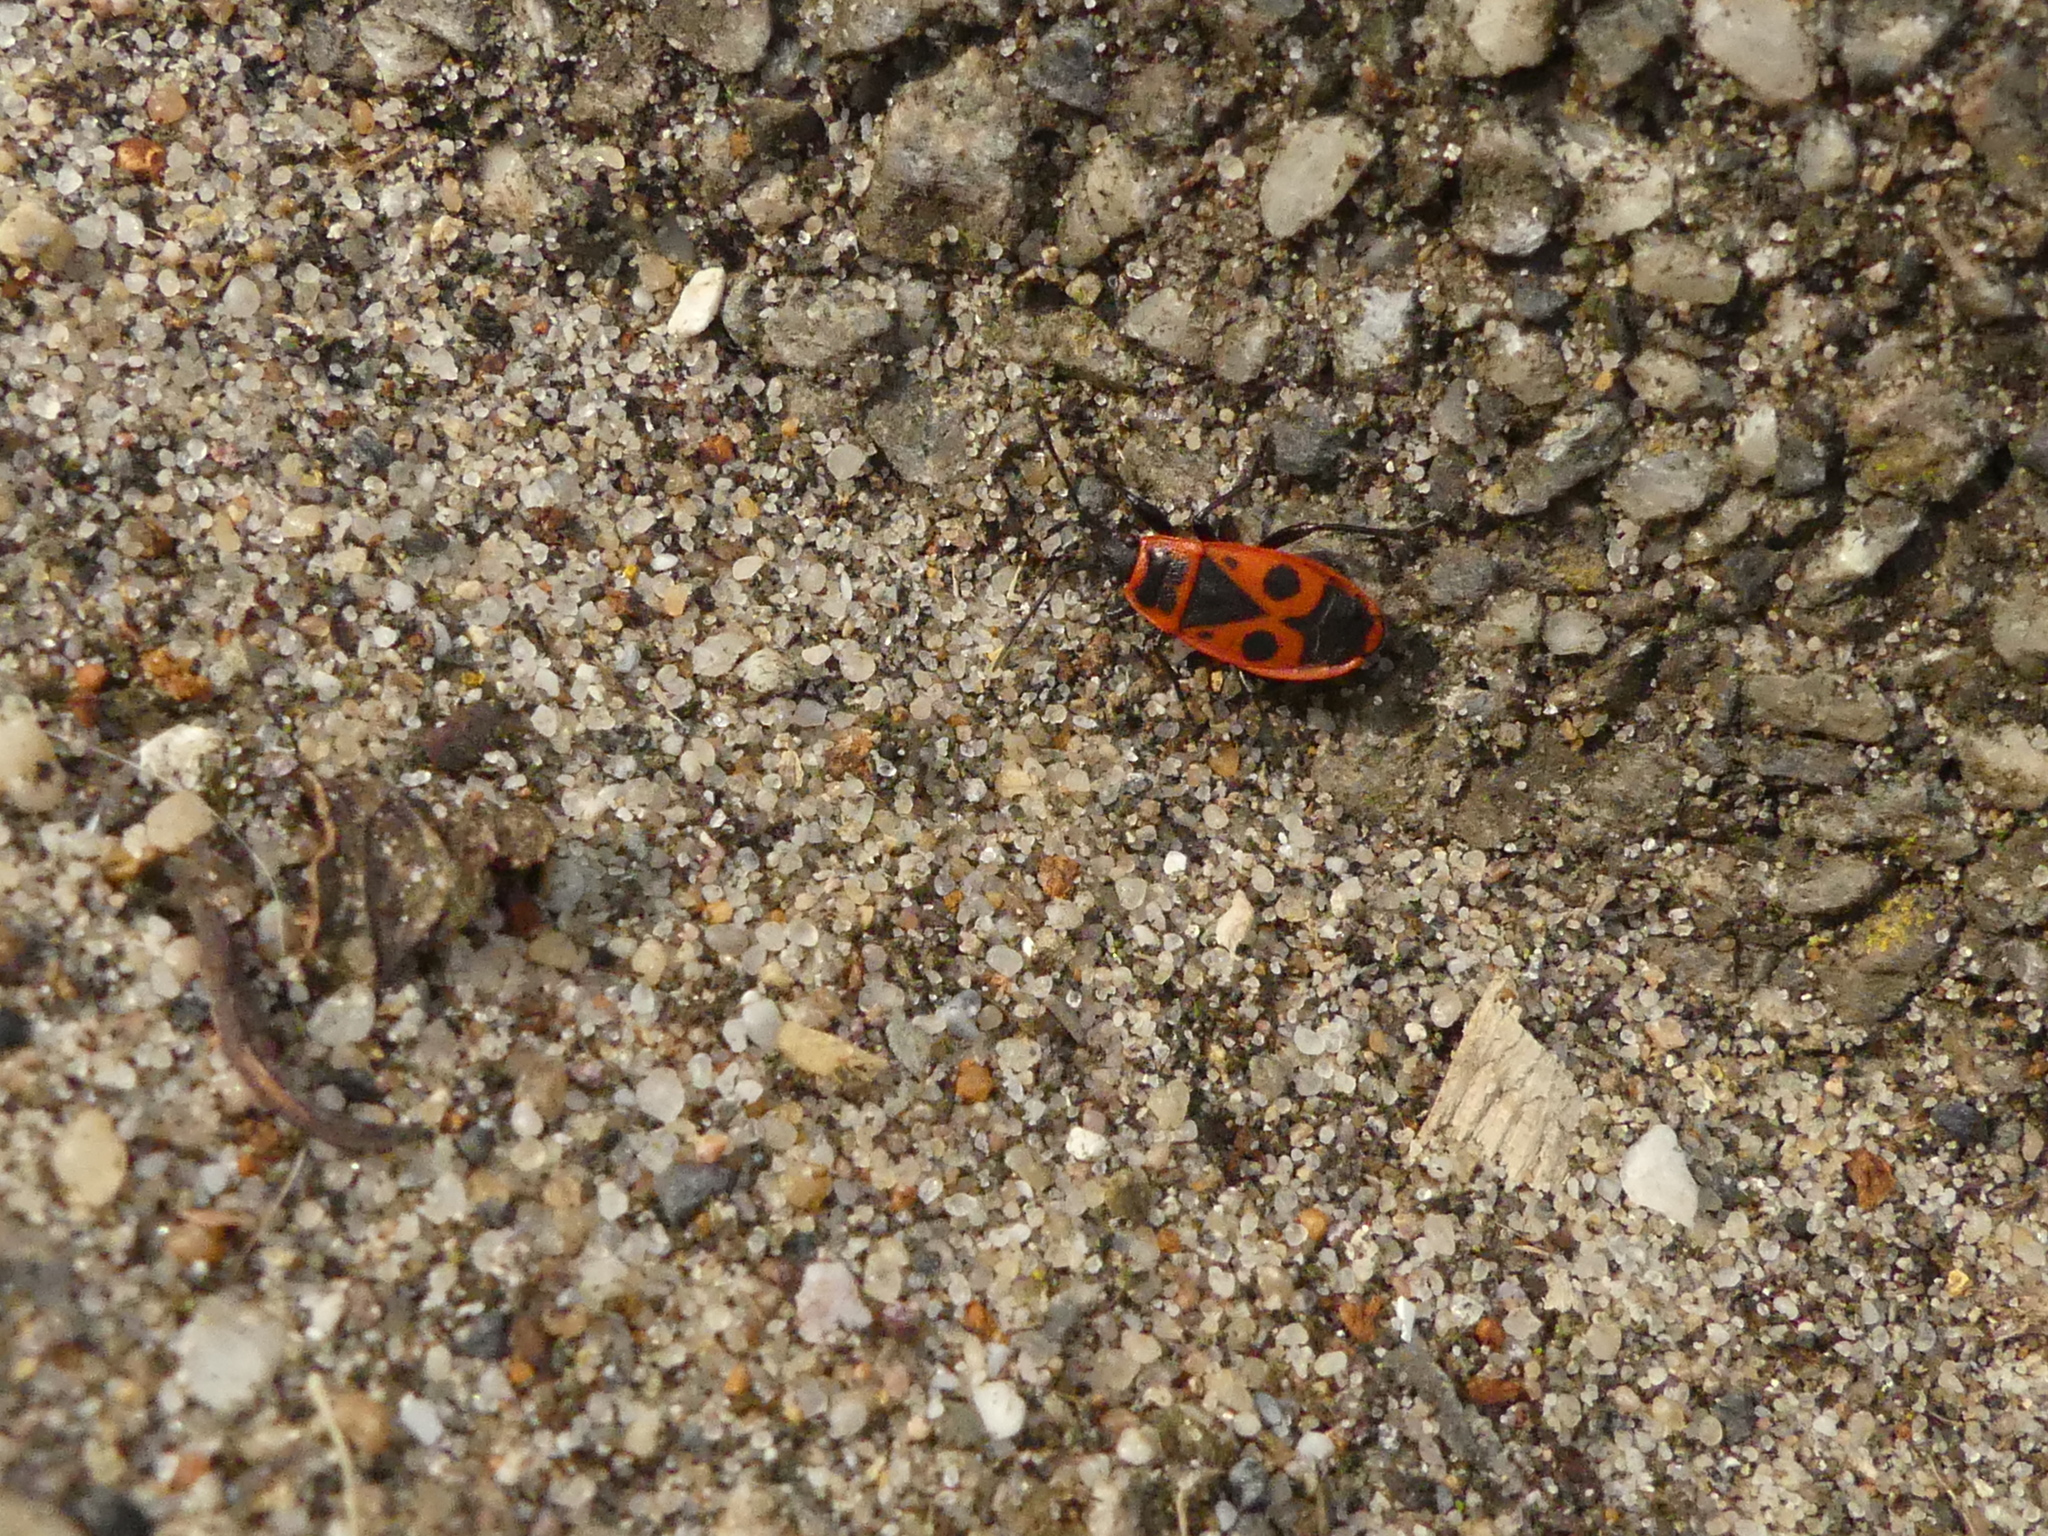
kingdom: Animalia
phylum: Arthropoda
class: Insecta
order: Hemiptera
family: Pyrrhocoridae
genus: Pyrrhocoris
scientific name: Pyrrhocoris apterus
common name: Firebug
